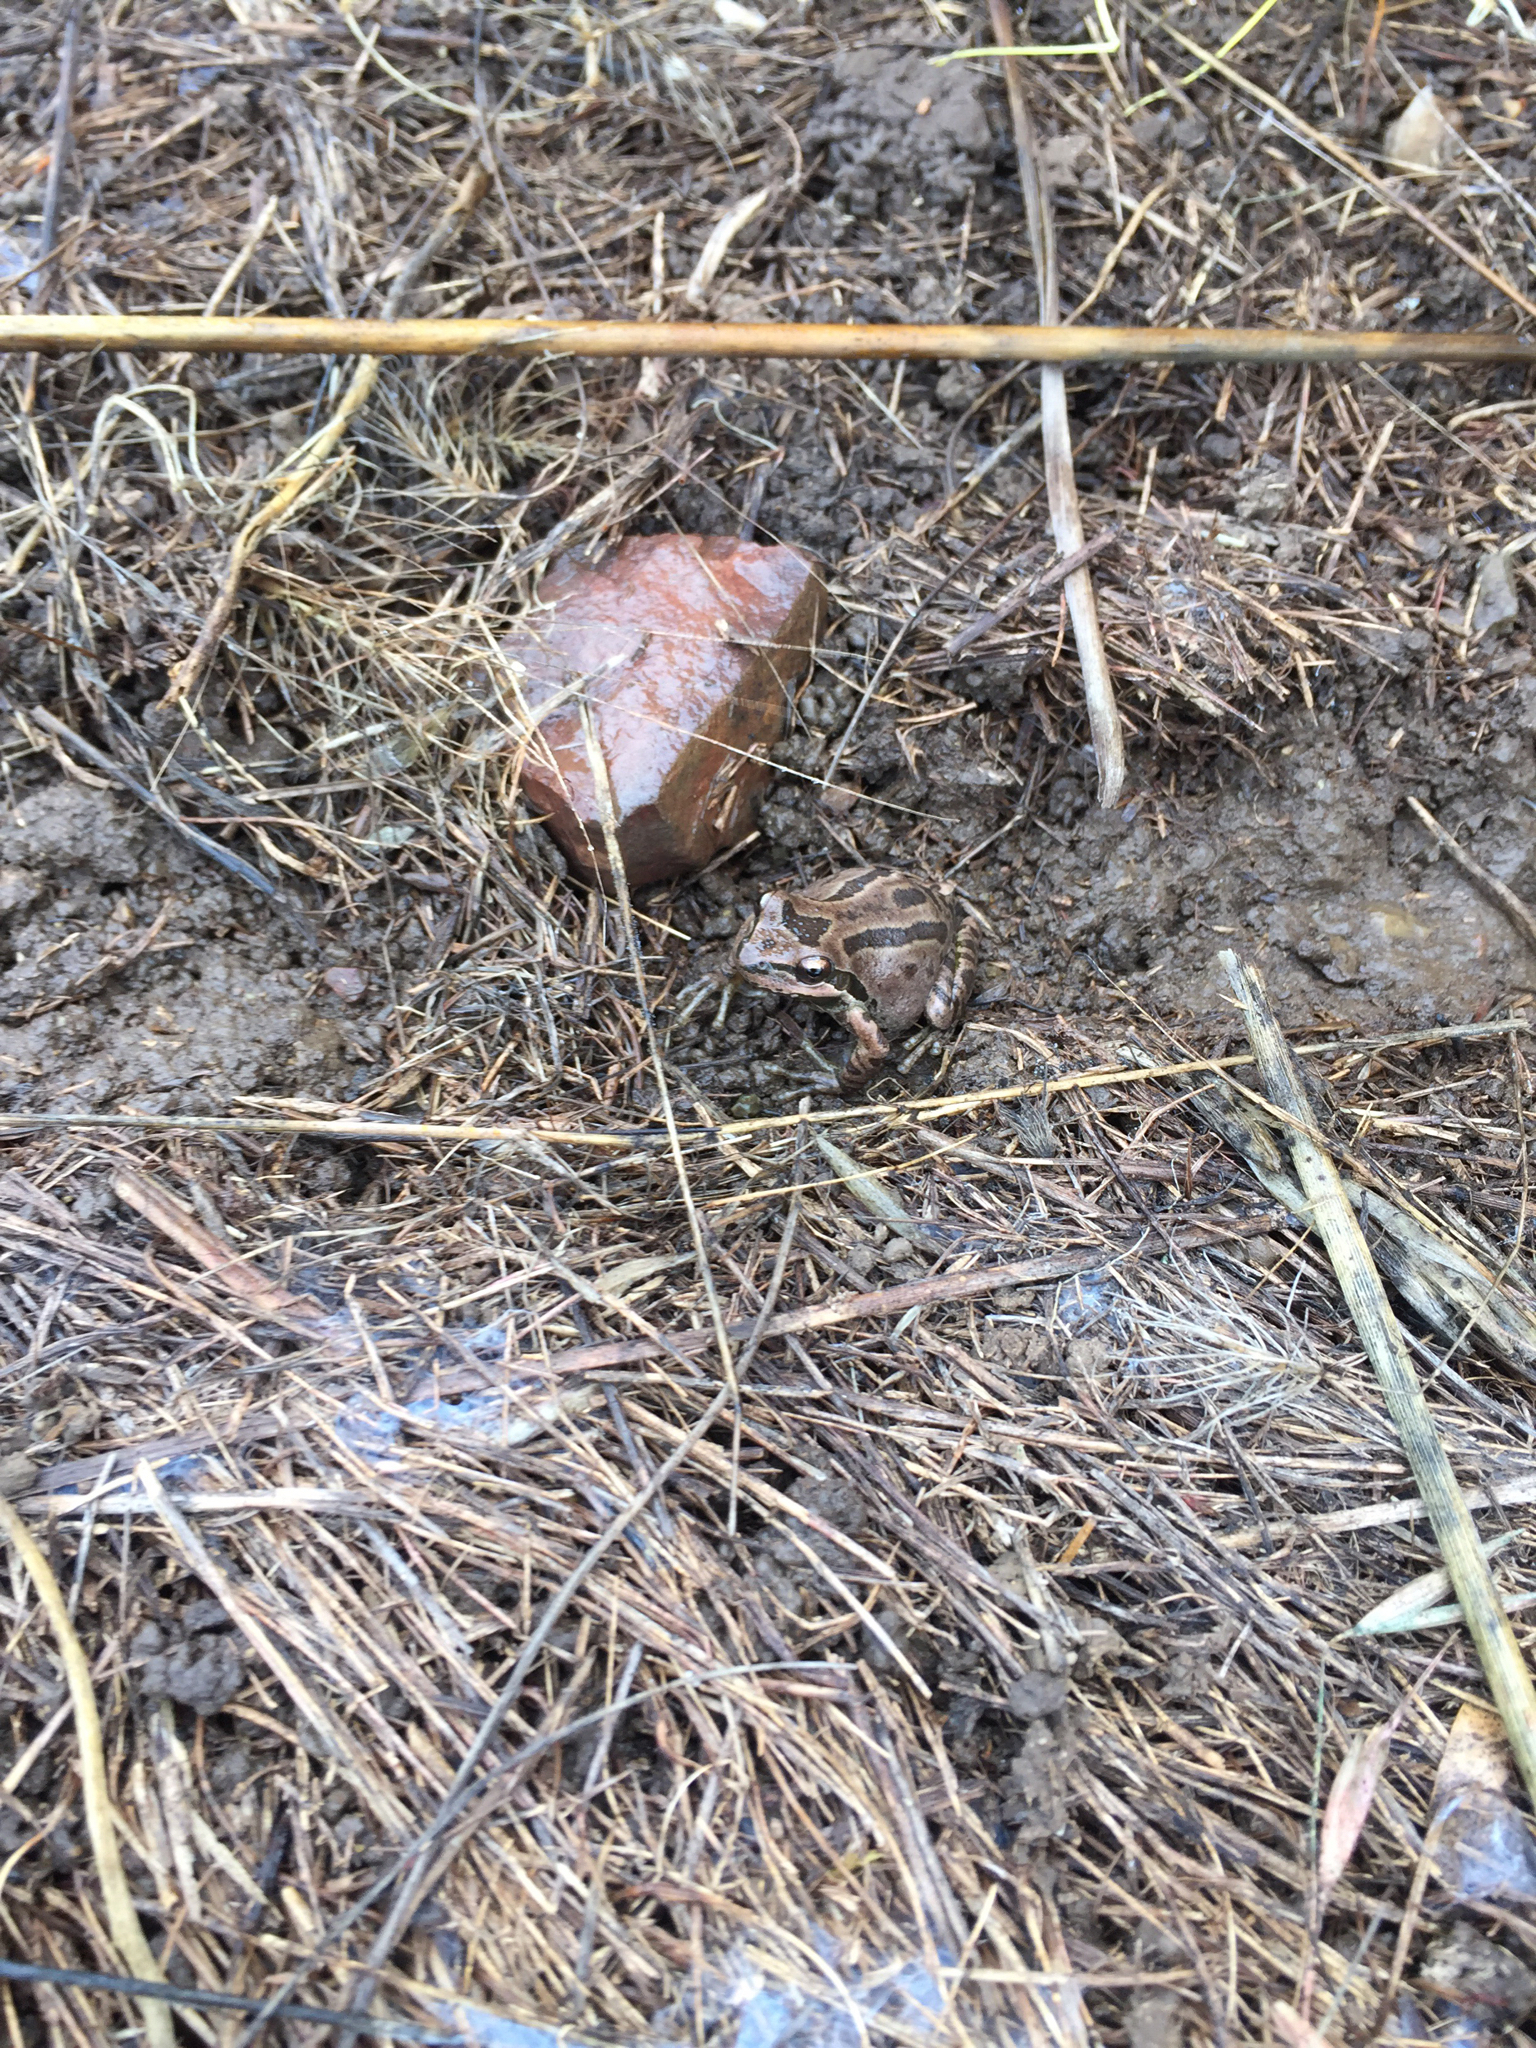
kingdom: Animalia
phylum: Chordata
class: Amphibia
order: Anura
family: Hylidae
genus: Pseudacris
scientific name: Pseudacris regilla
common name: Pacific chorus frog
